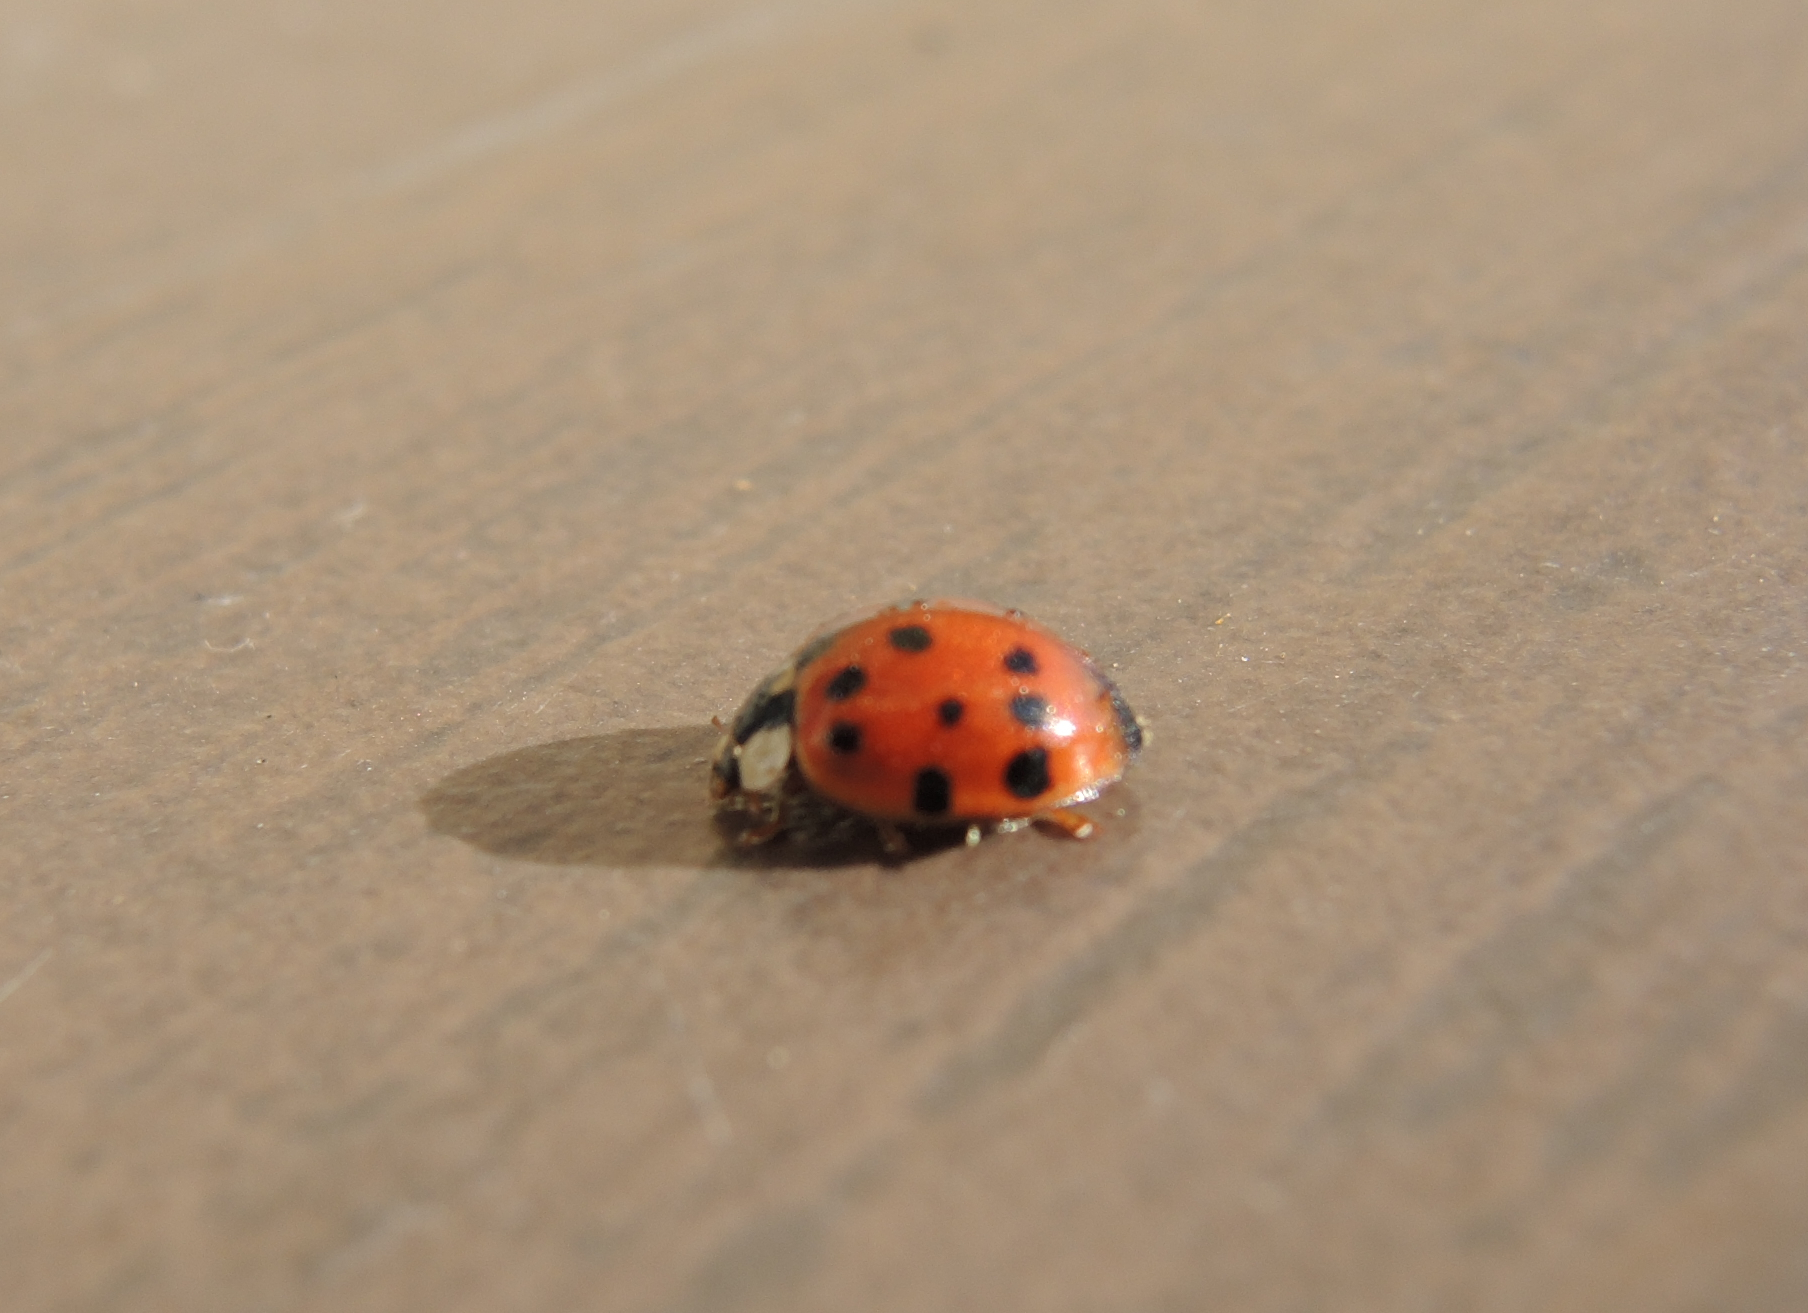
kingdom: Animalia
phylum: Arthropoda
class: Insecta
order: Coleoptera
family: Coccinellidae
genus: Harmonia
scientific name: Harmonia axyridis
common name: Harlequin ladybird
